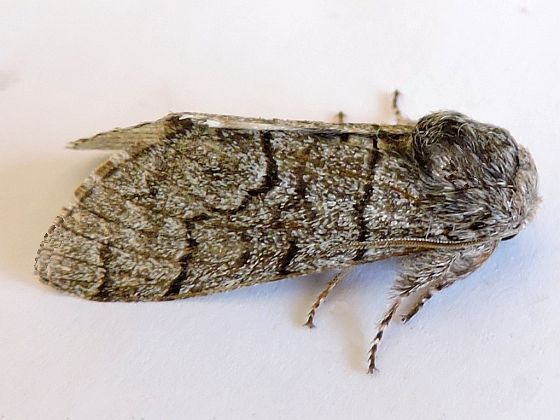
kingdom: Animalia
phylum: Arthropoda
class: Insecta
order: Lepidoptera
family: Noctuidae
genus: Panthea
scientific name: Panthea gigantea
